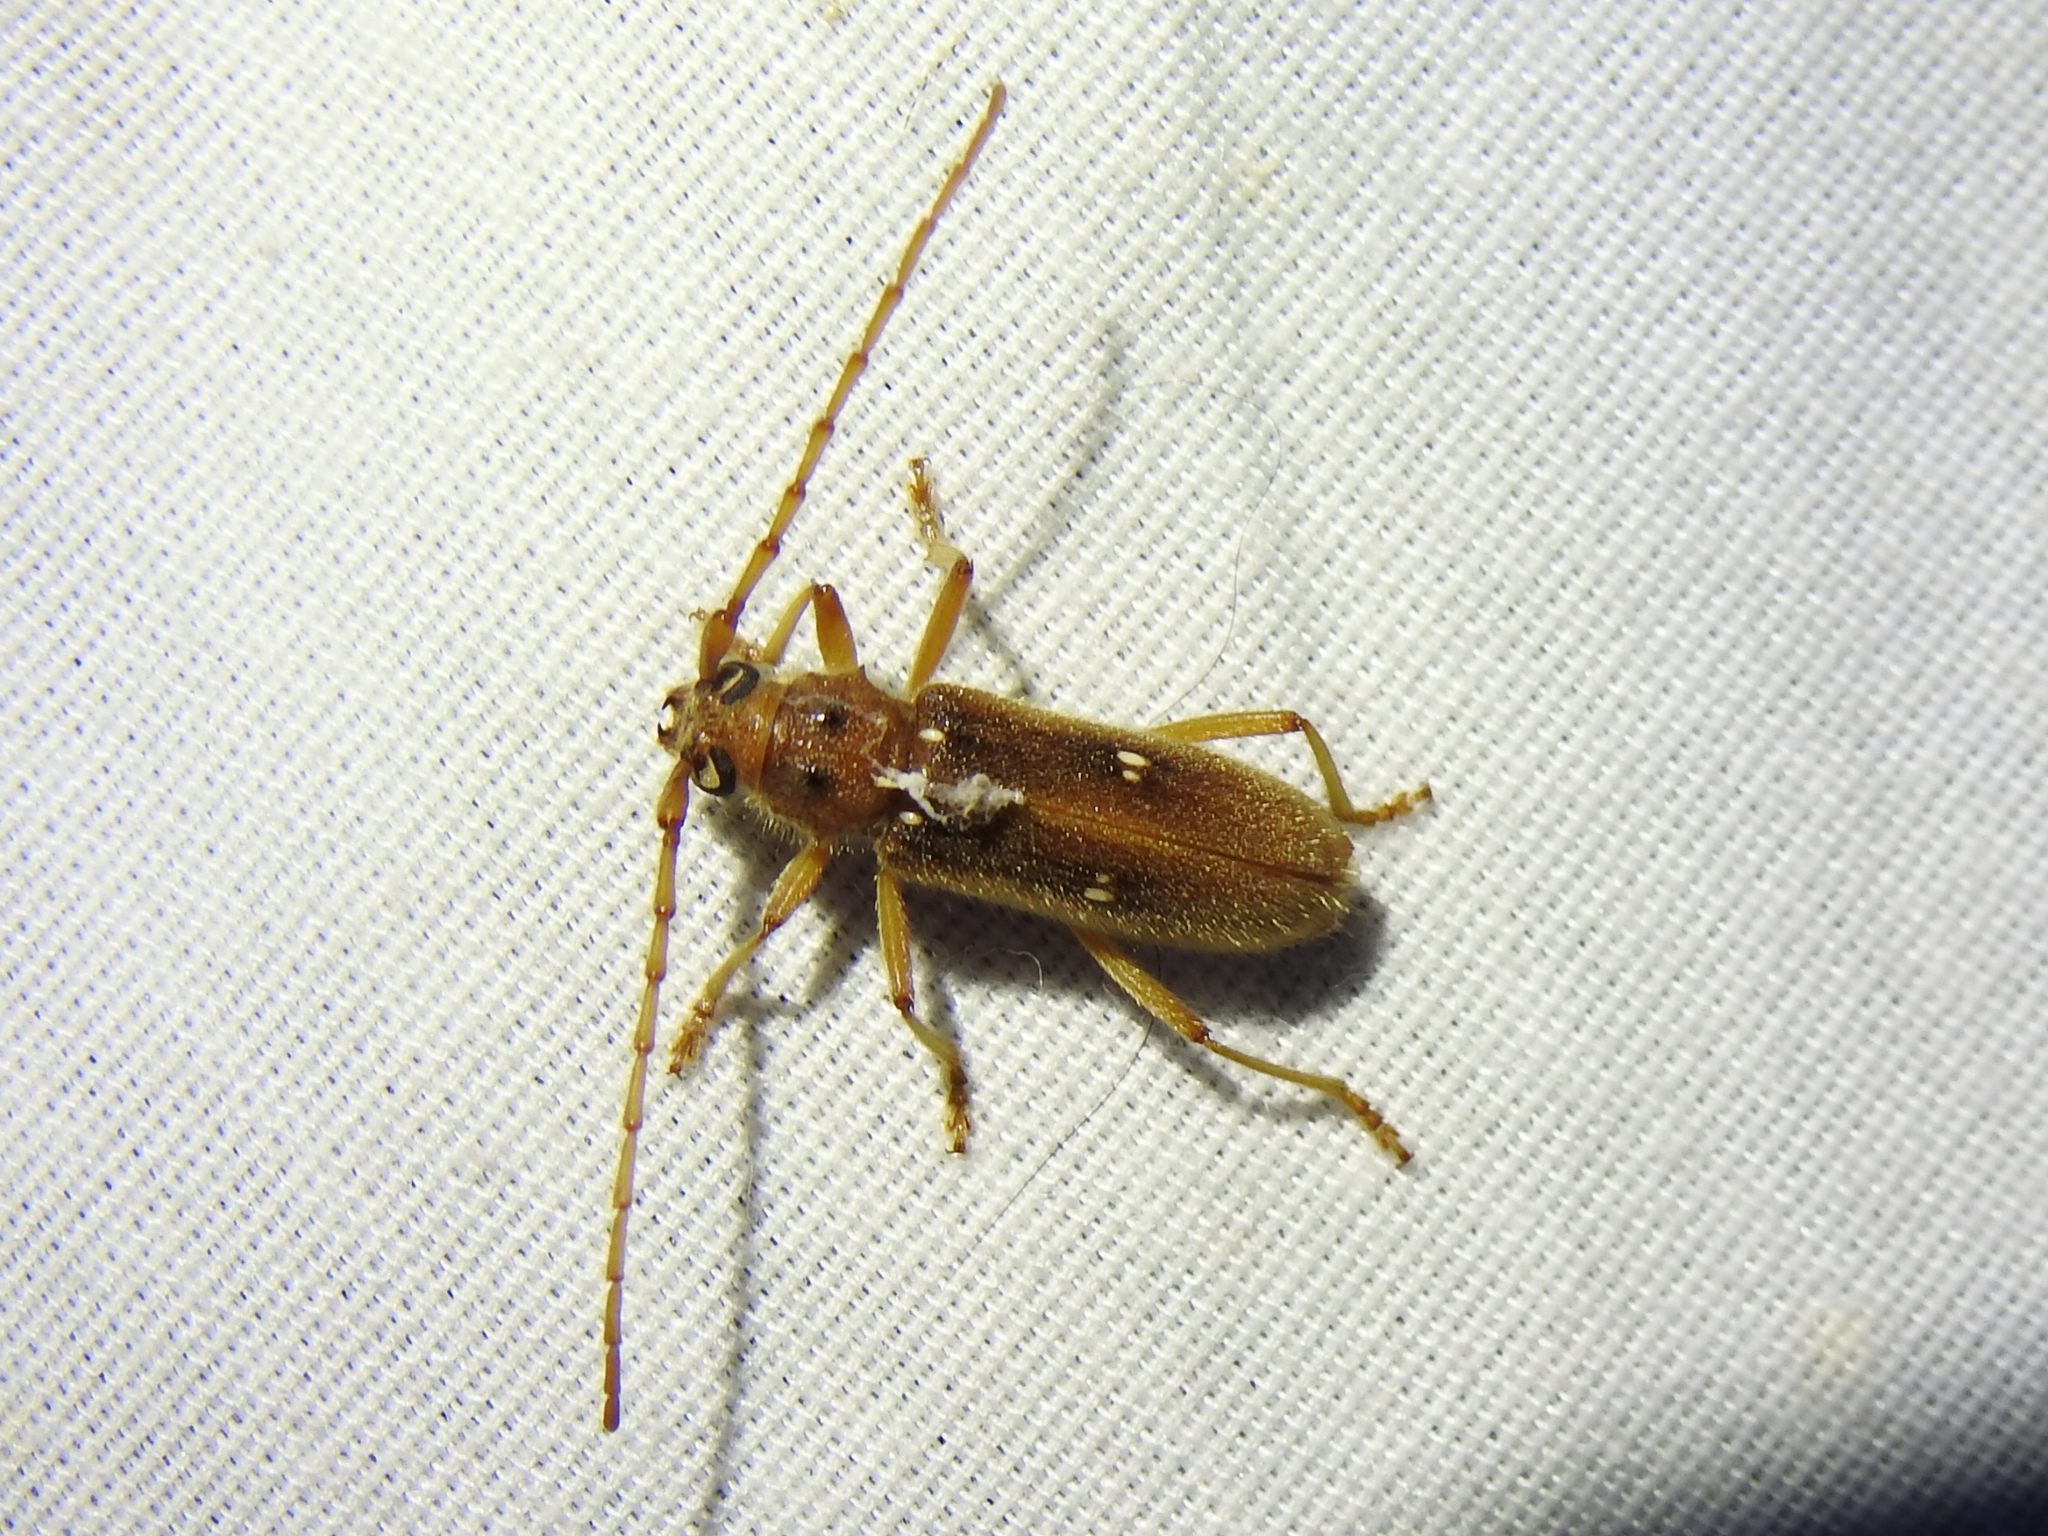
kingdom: Animalia
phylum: Arthropoda
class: Insecta
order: Coleoptera
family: Cerambycidae
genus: Eburia
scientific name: Eburia haldemani
